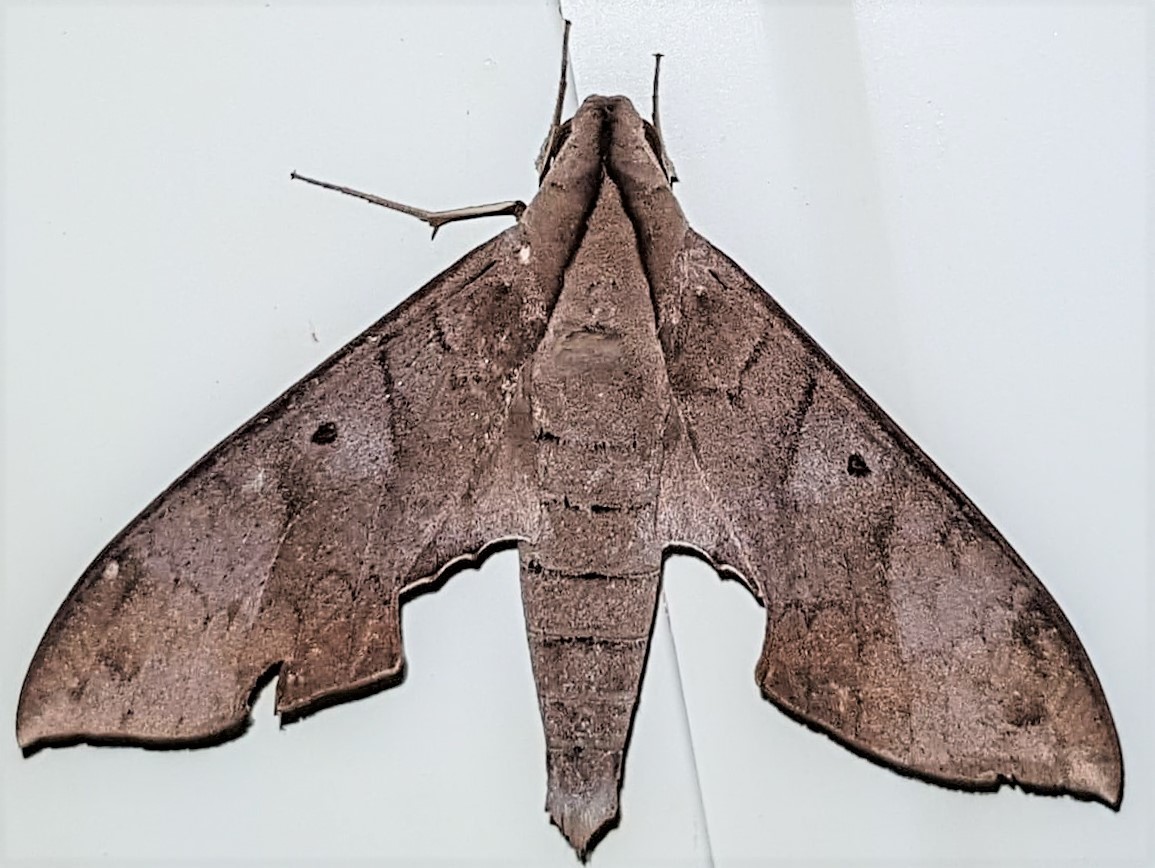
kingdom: Animalia
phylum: Arthropoda
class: Insecta
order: Lepidoptera
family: Sphingidae
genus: Pachylia
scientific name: Pachylia darceta
